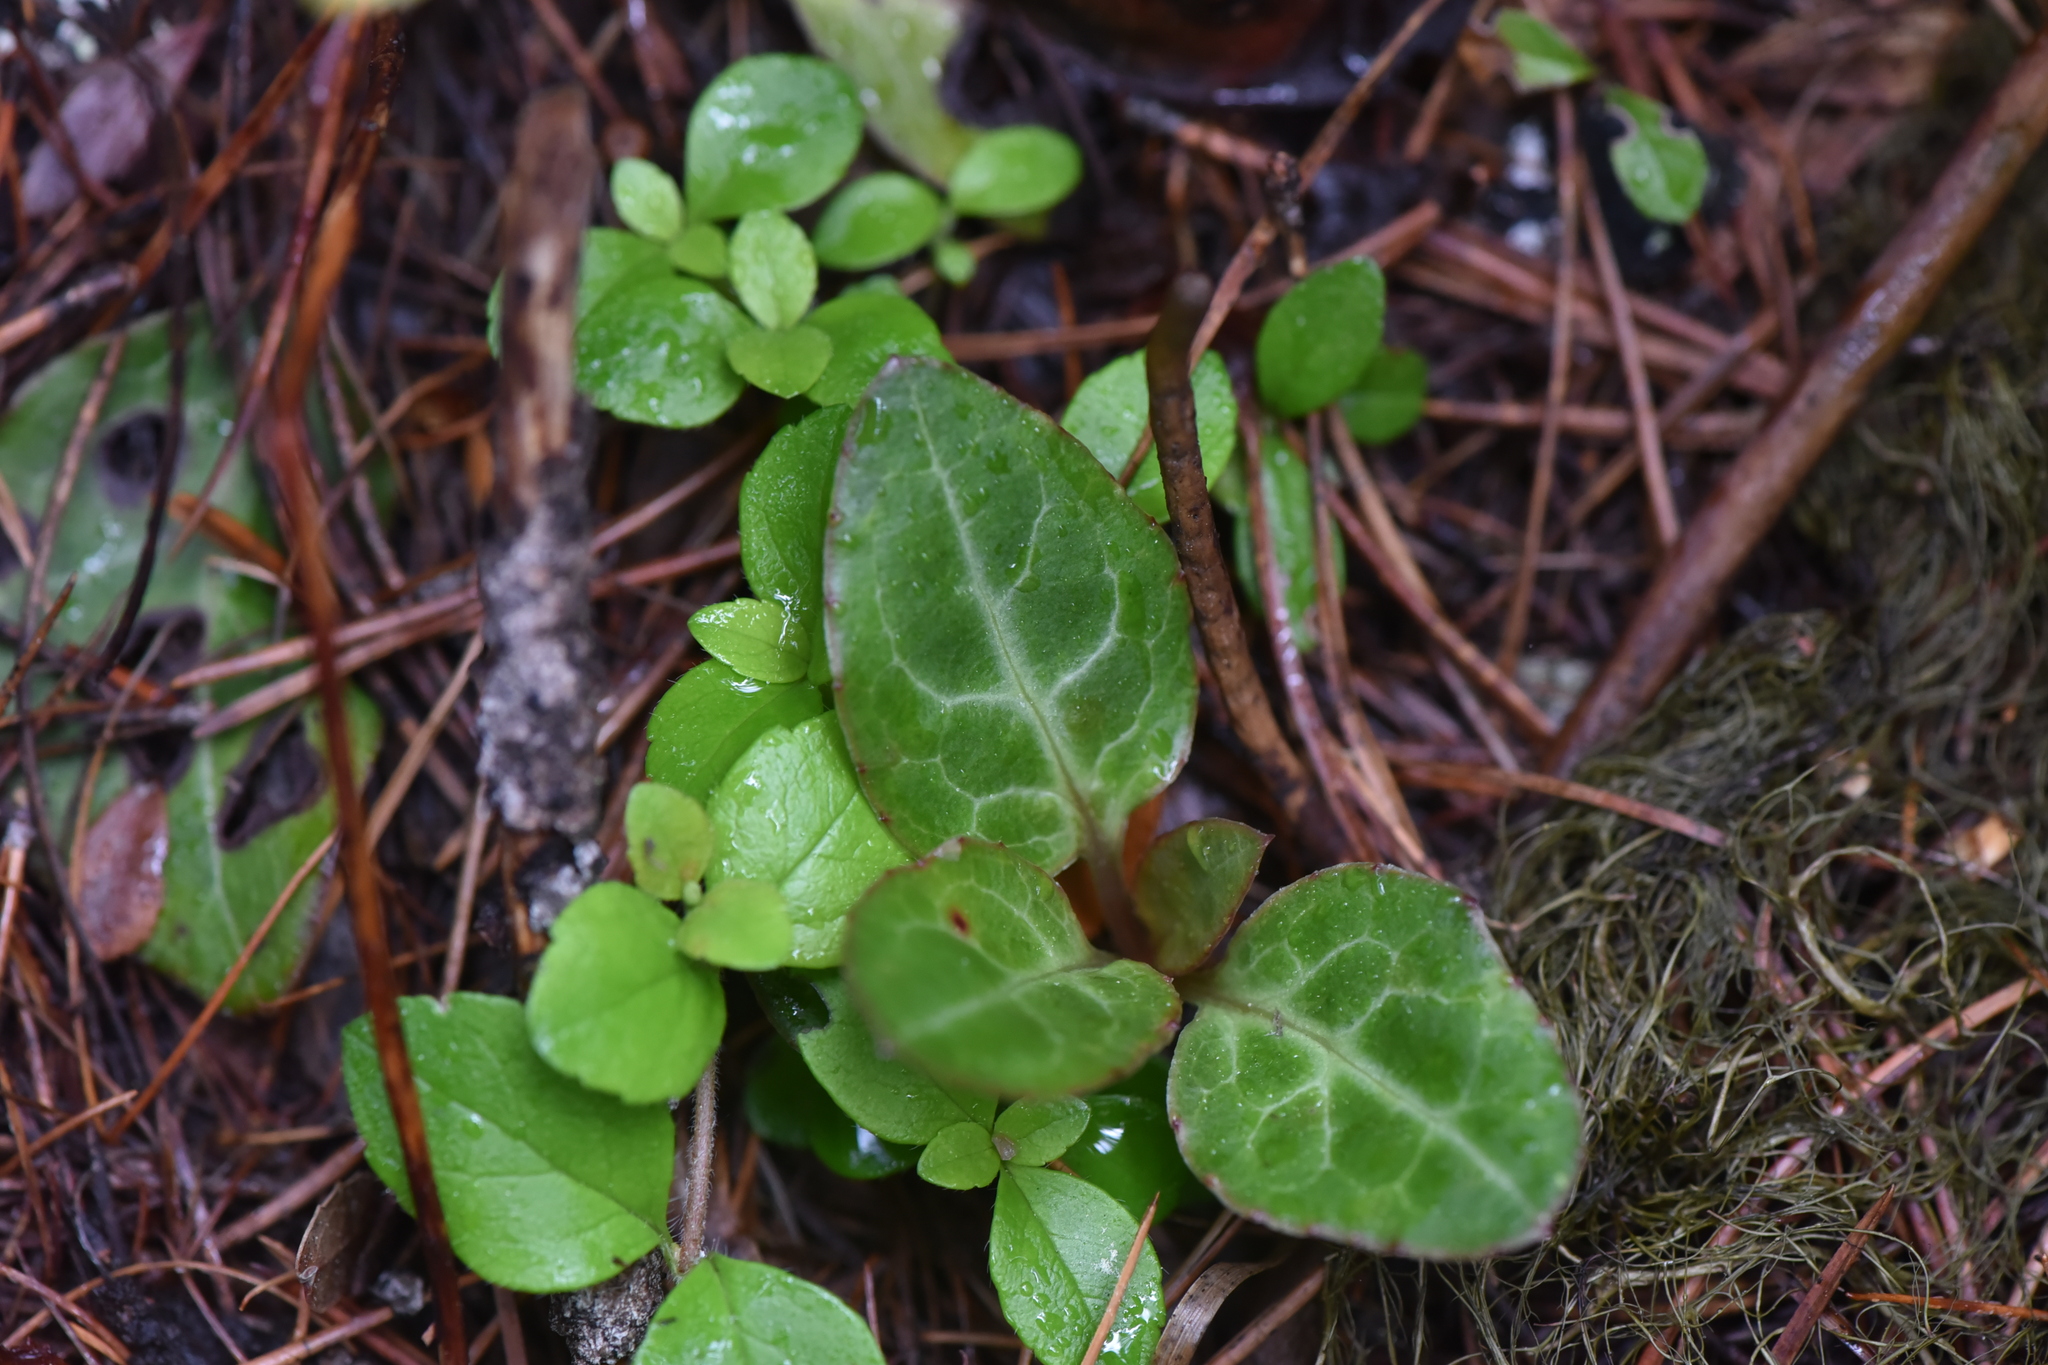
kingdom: Plantae
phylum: Tracheophyta
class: Magnoliopsida
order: Ericales
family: Ericaceae
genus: Pyrola
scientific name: Pyrola picta
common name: White-vein wintergreen
